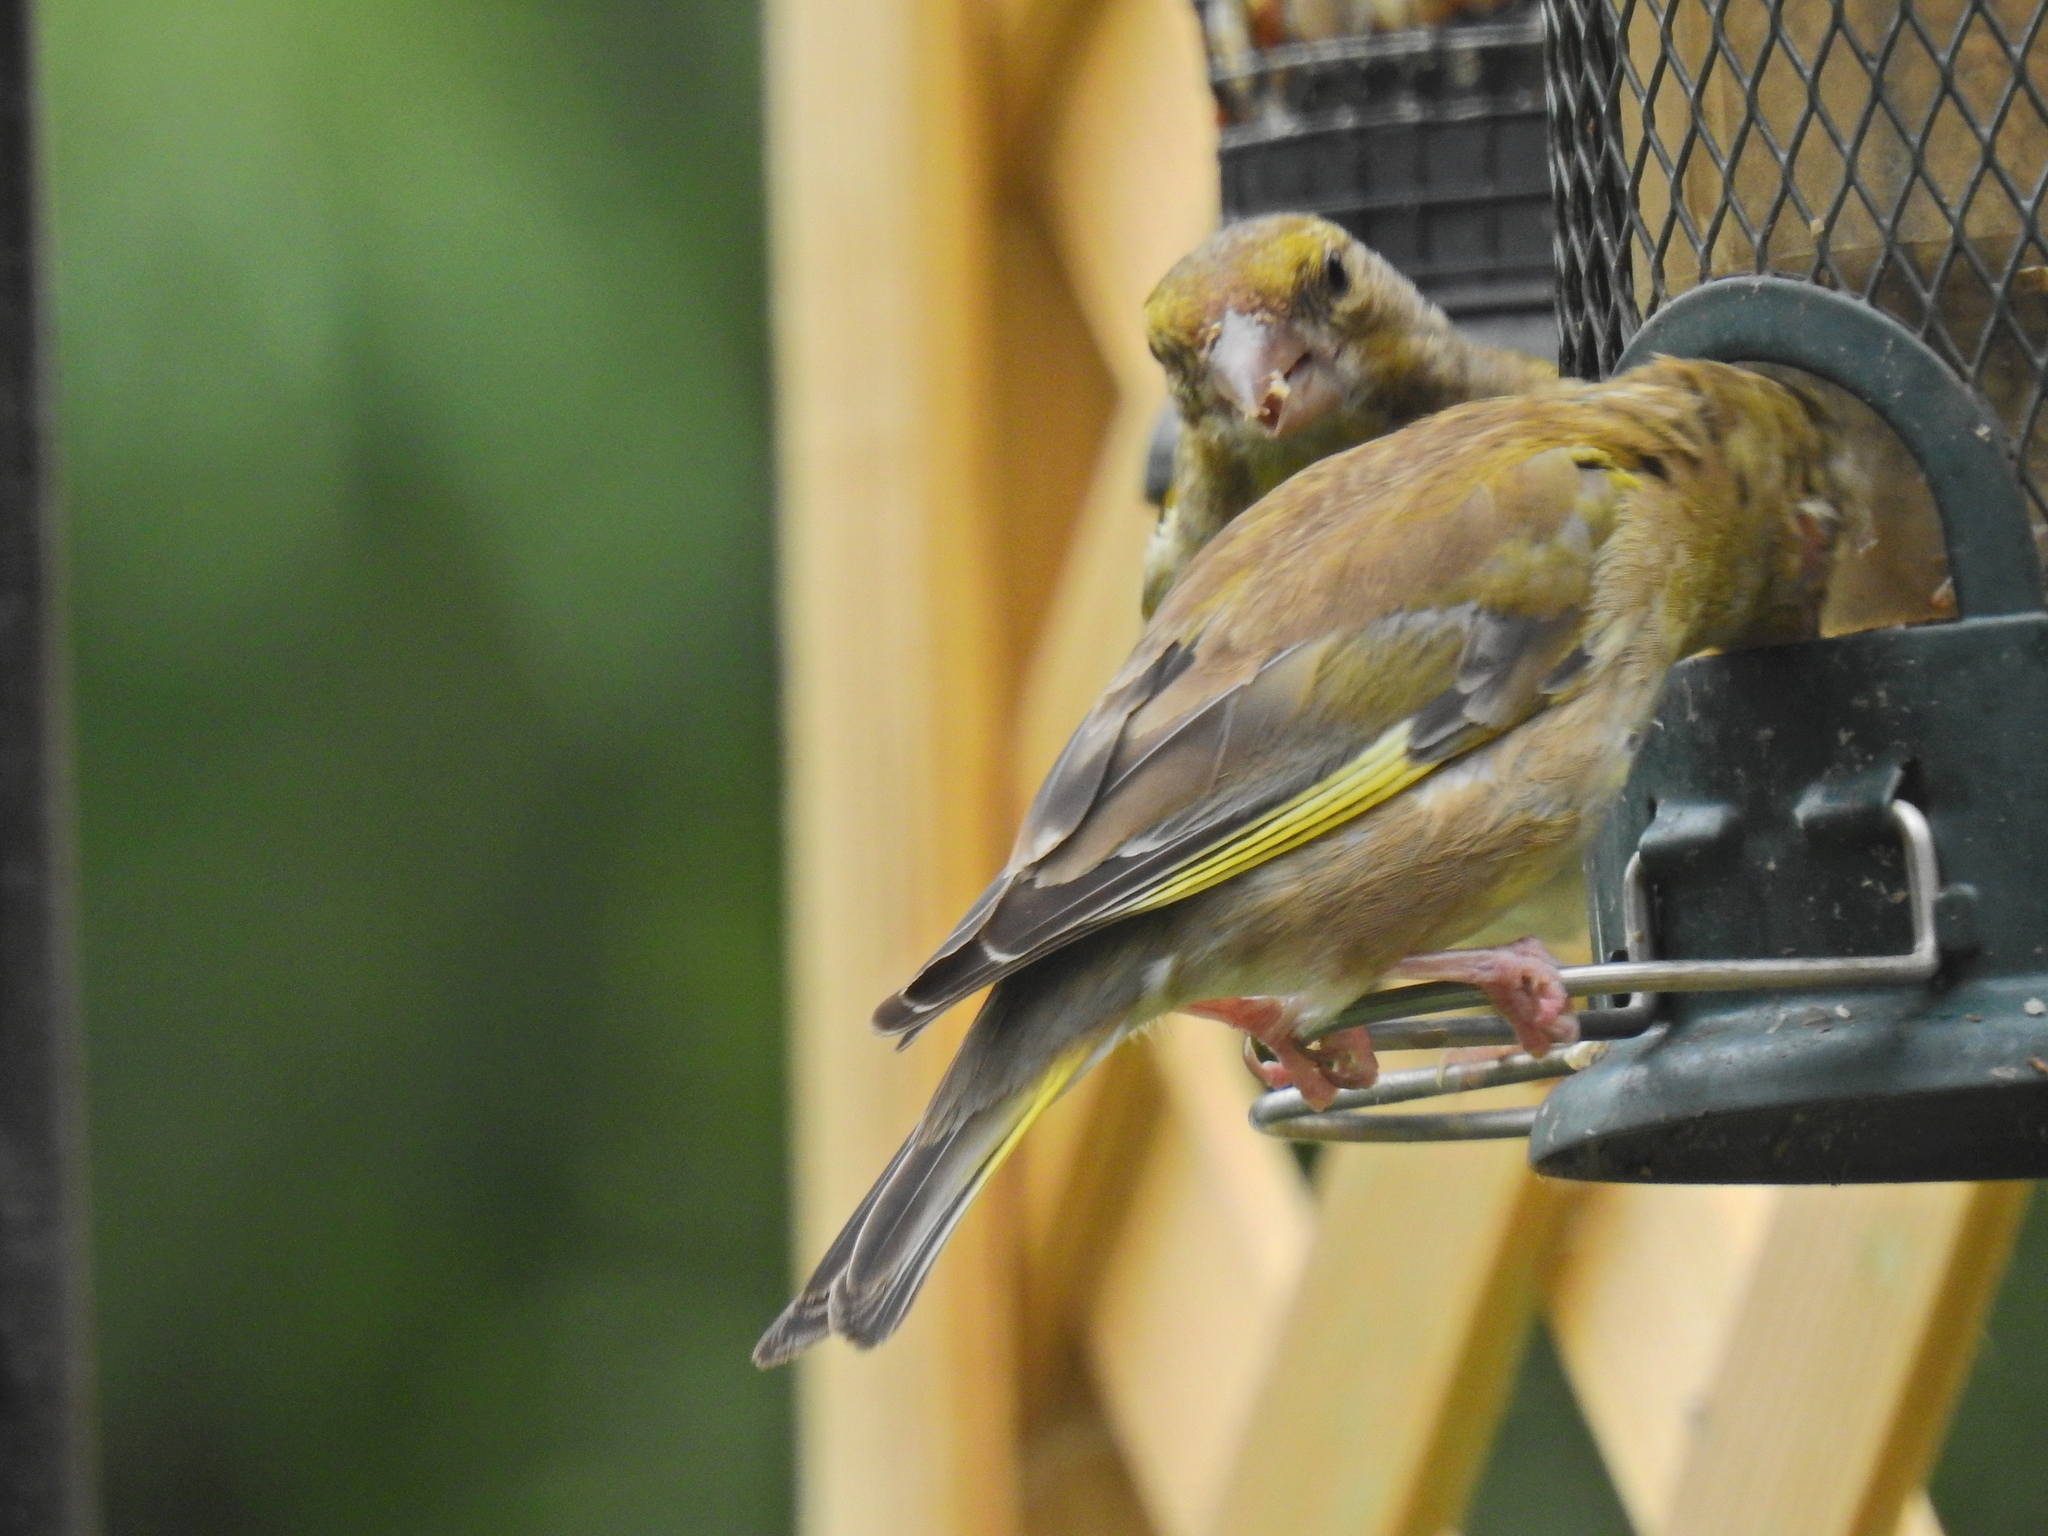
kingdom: Plantae
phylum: Tracheophyta
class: Liliopsida
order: Poales
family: Poaceae
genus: Chloris
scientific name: Chloris chloris
